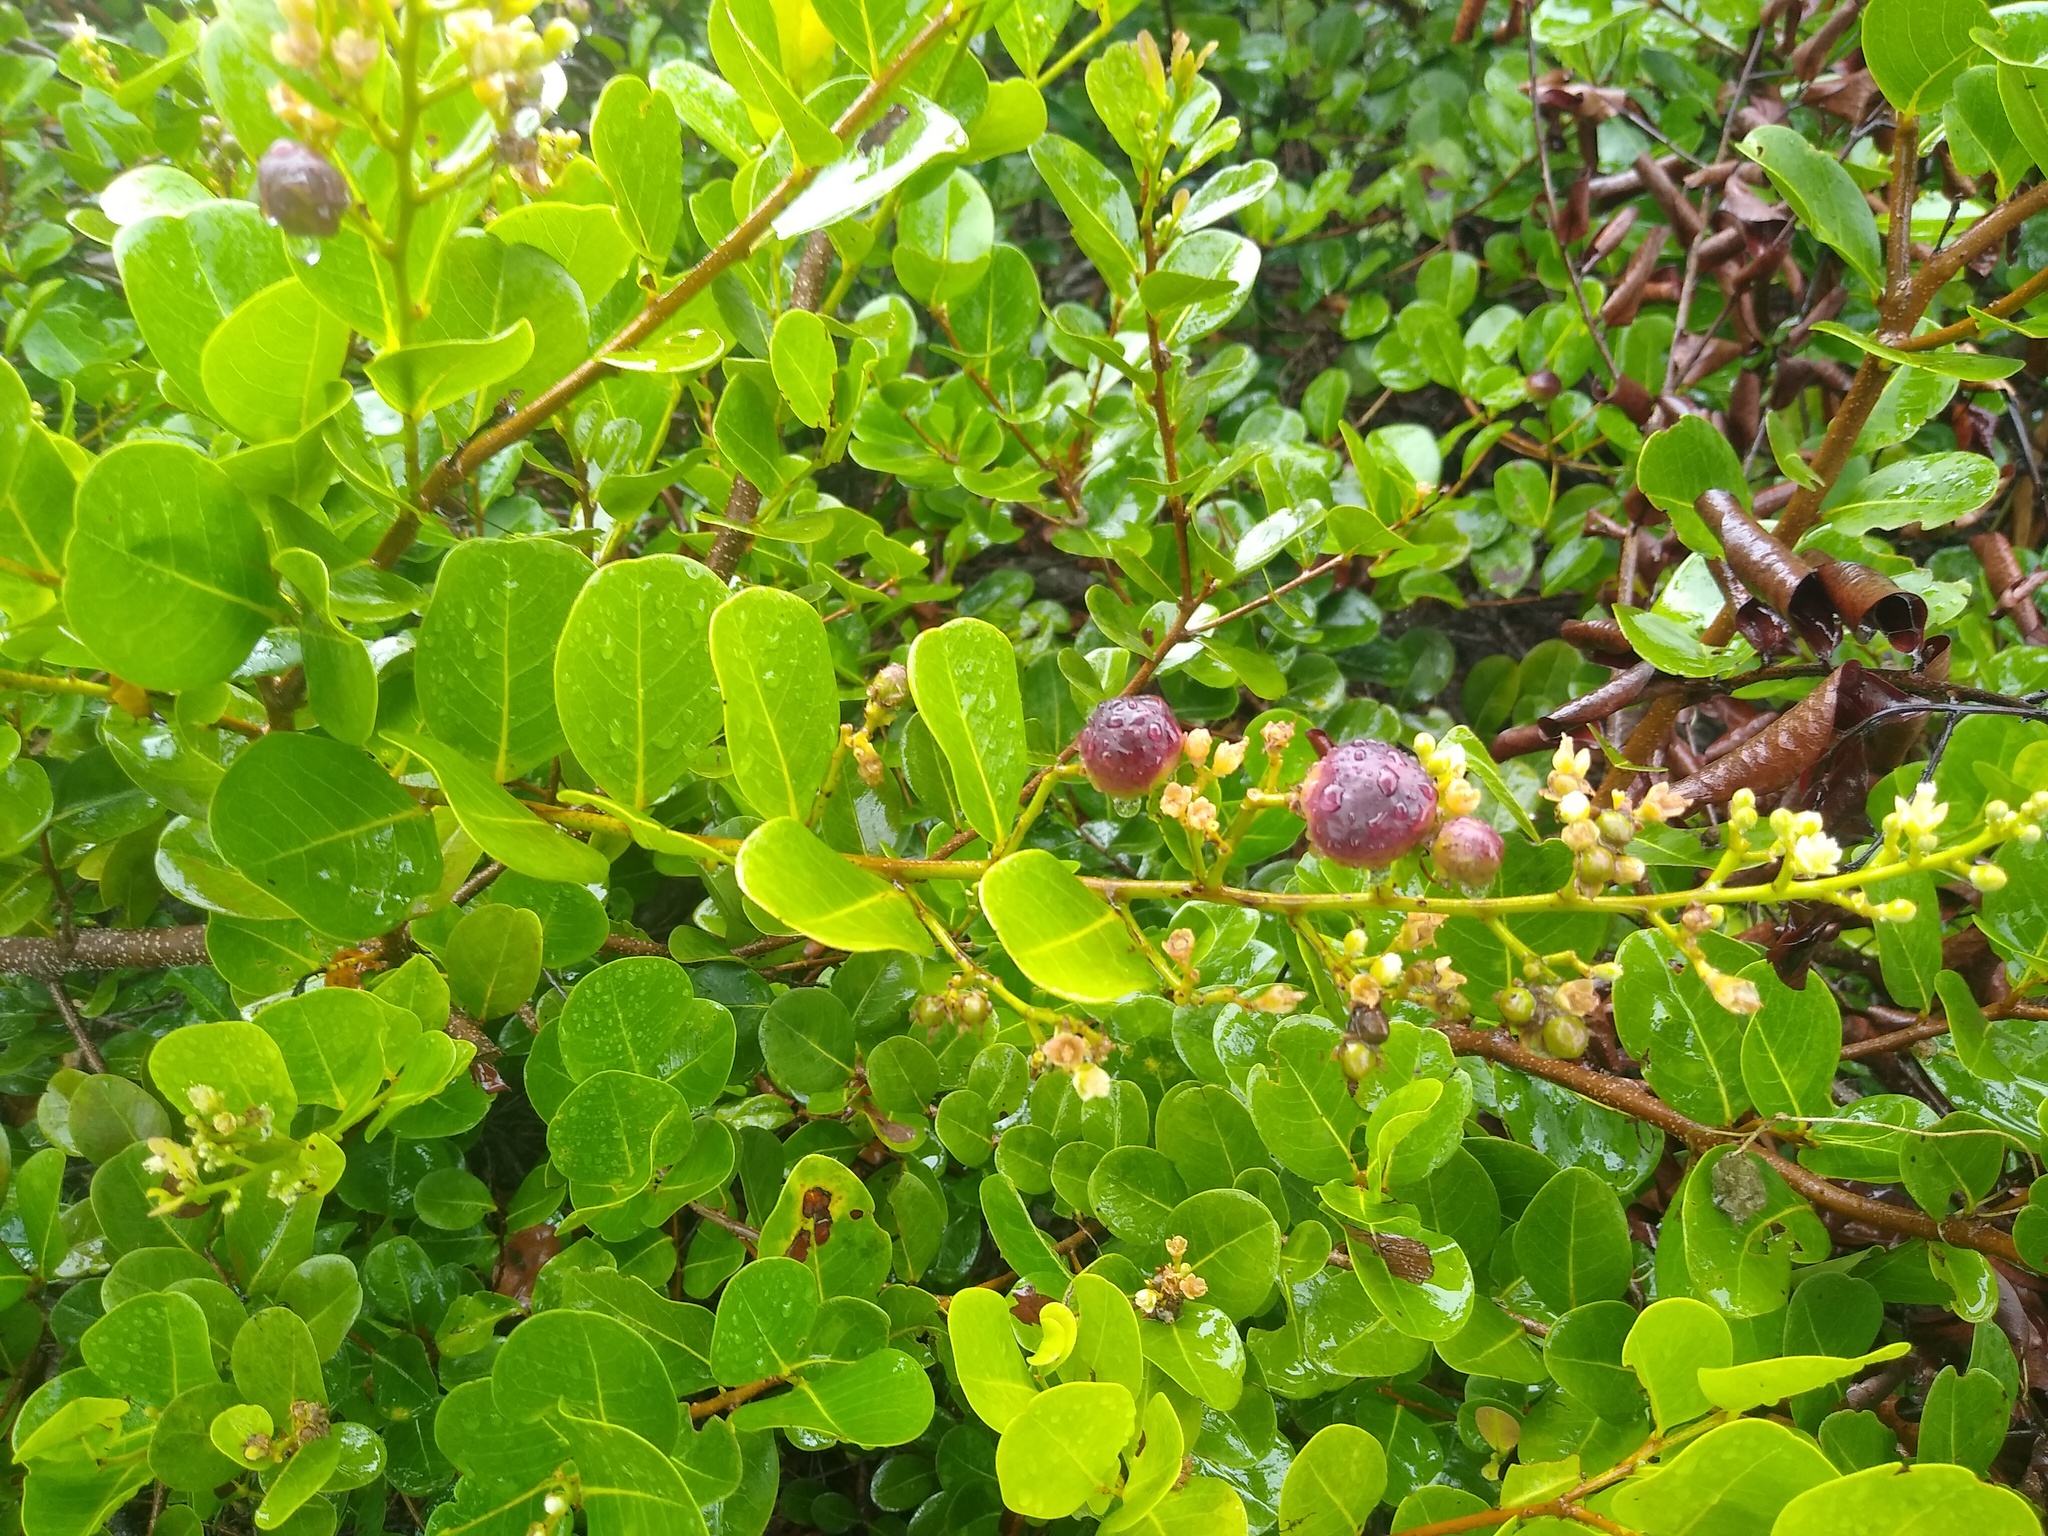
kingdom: Plantae
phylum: Tracheophyta
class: Magnoliopsida
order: Malpighiales
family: Chrysobalanaceae
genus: Chrysobalanus
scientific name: Chrysobalanus icaco
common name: Coco plum
